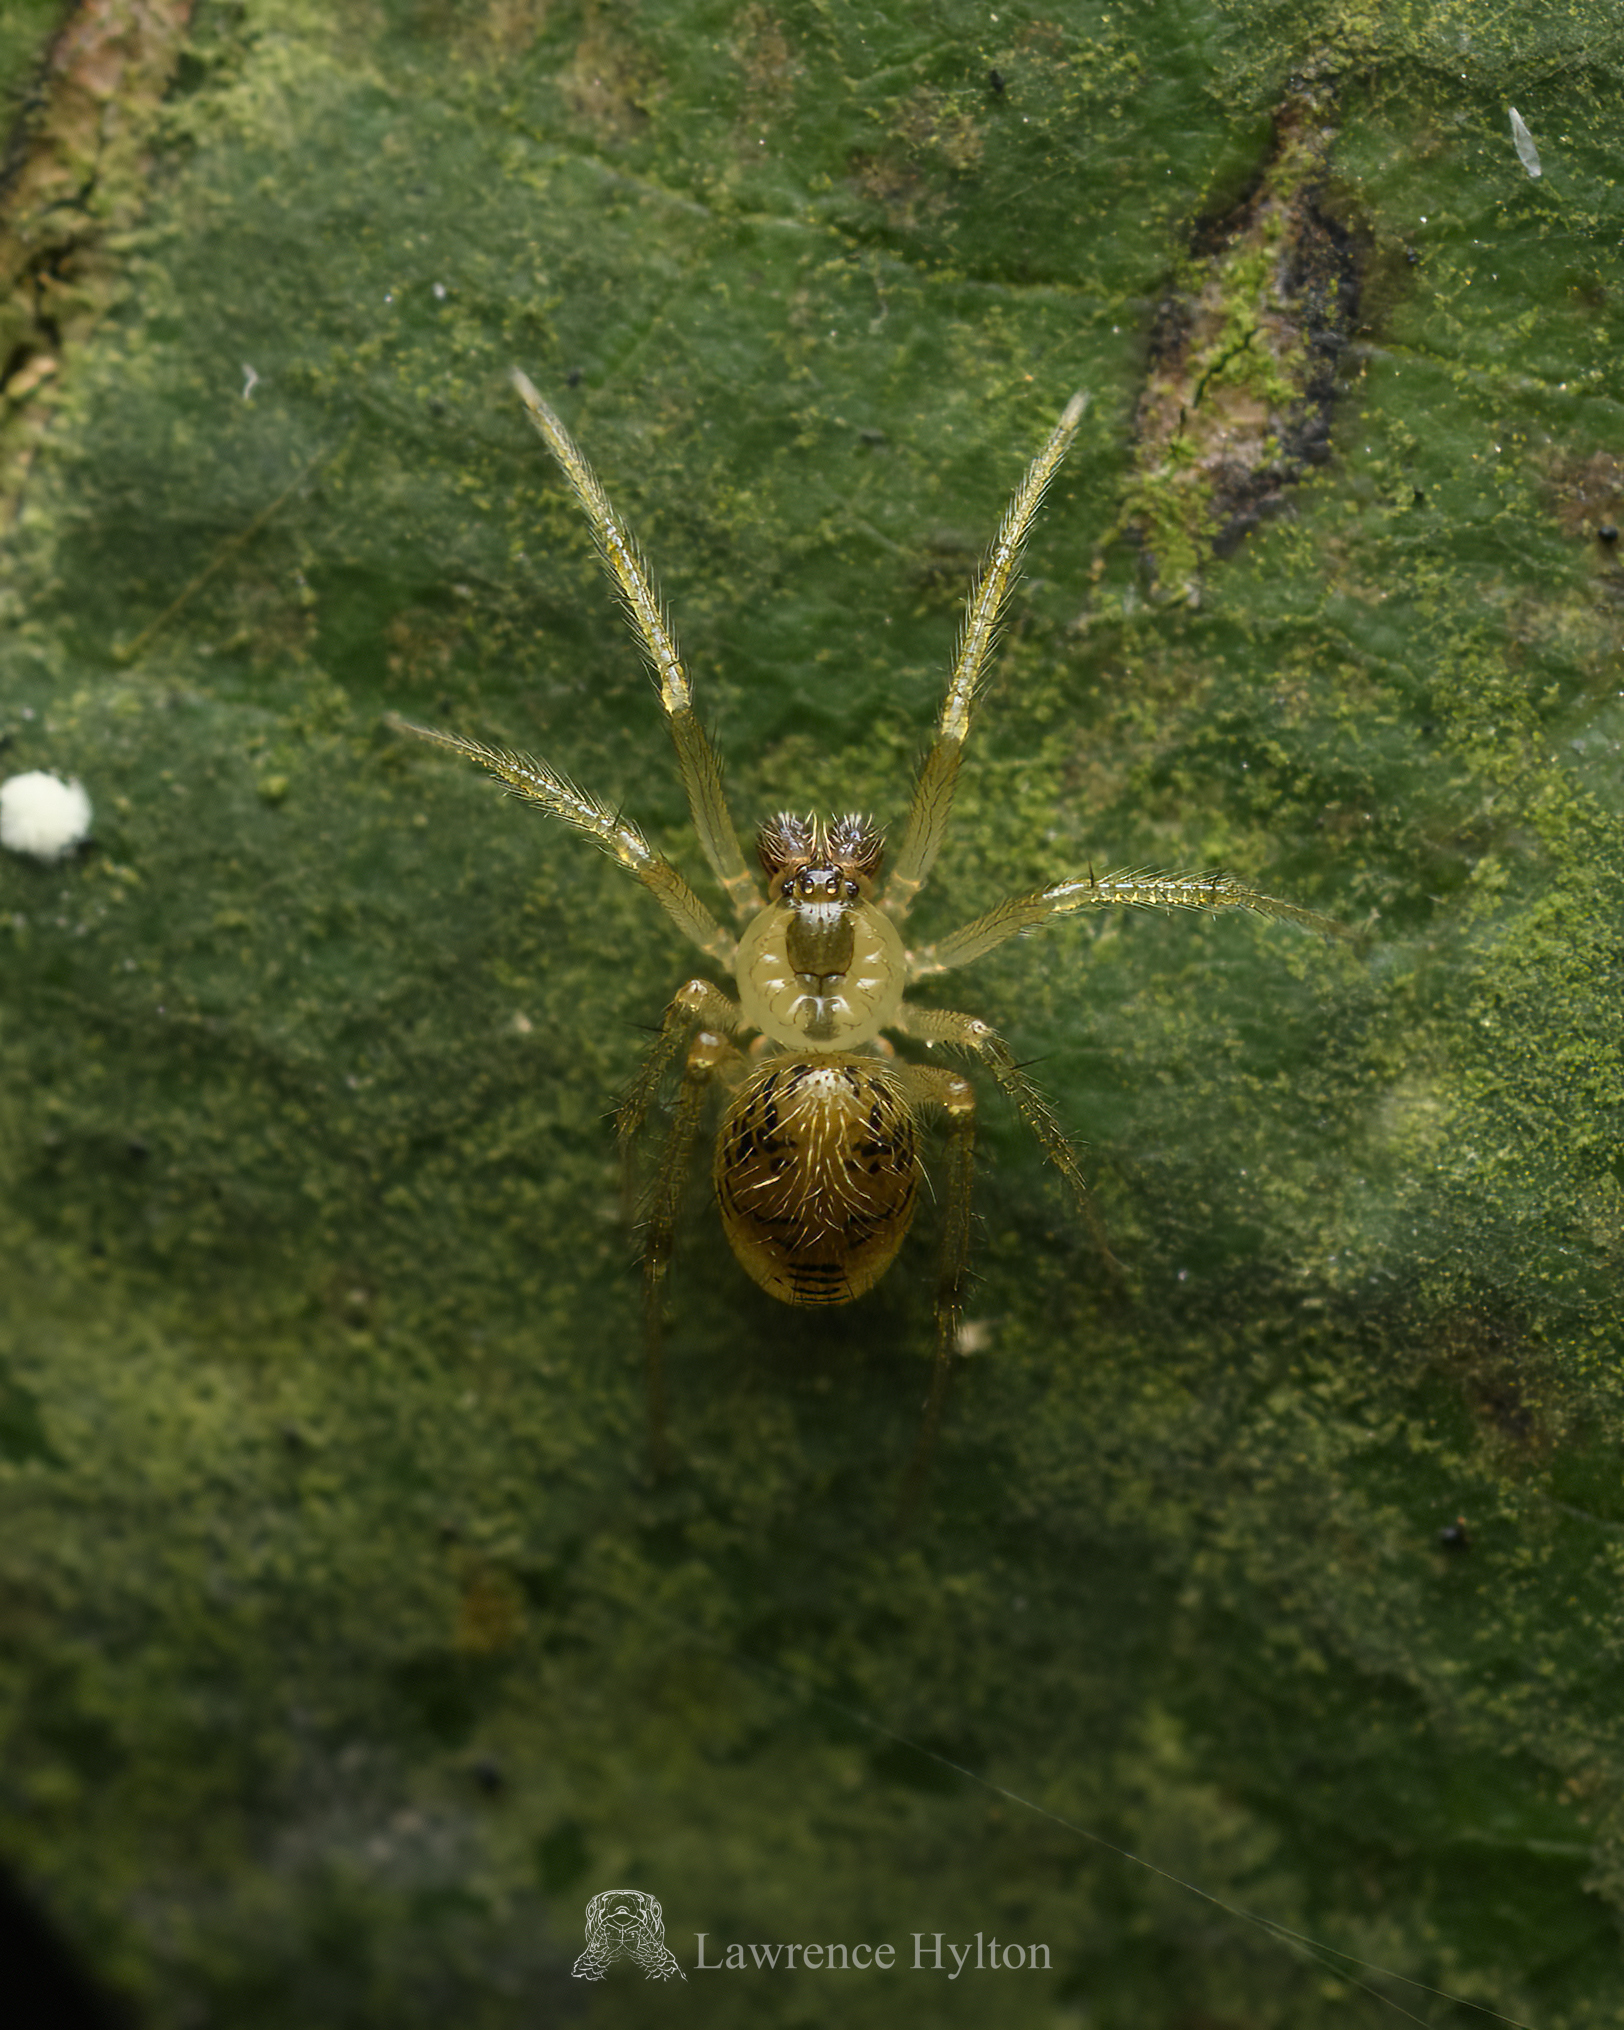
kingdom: Animalia
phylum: Arthropoda
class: Arachnida
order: Araneae
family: Theridiidae
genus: Phycosoma
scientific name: Phycosoma digitula
